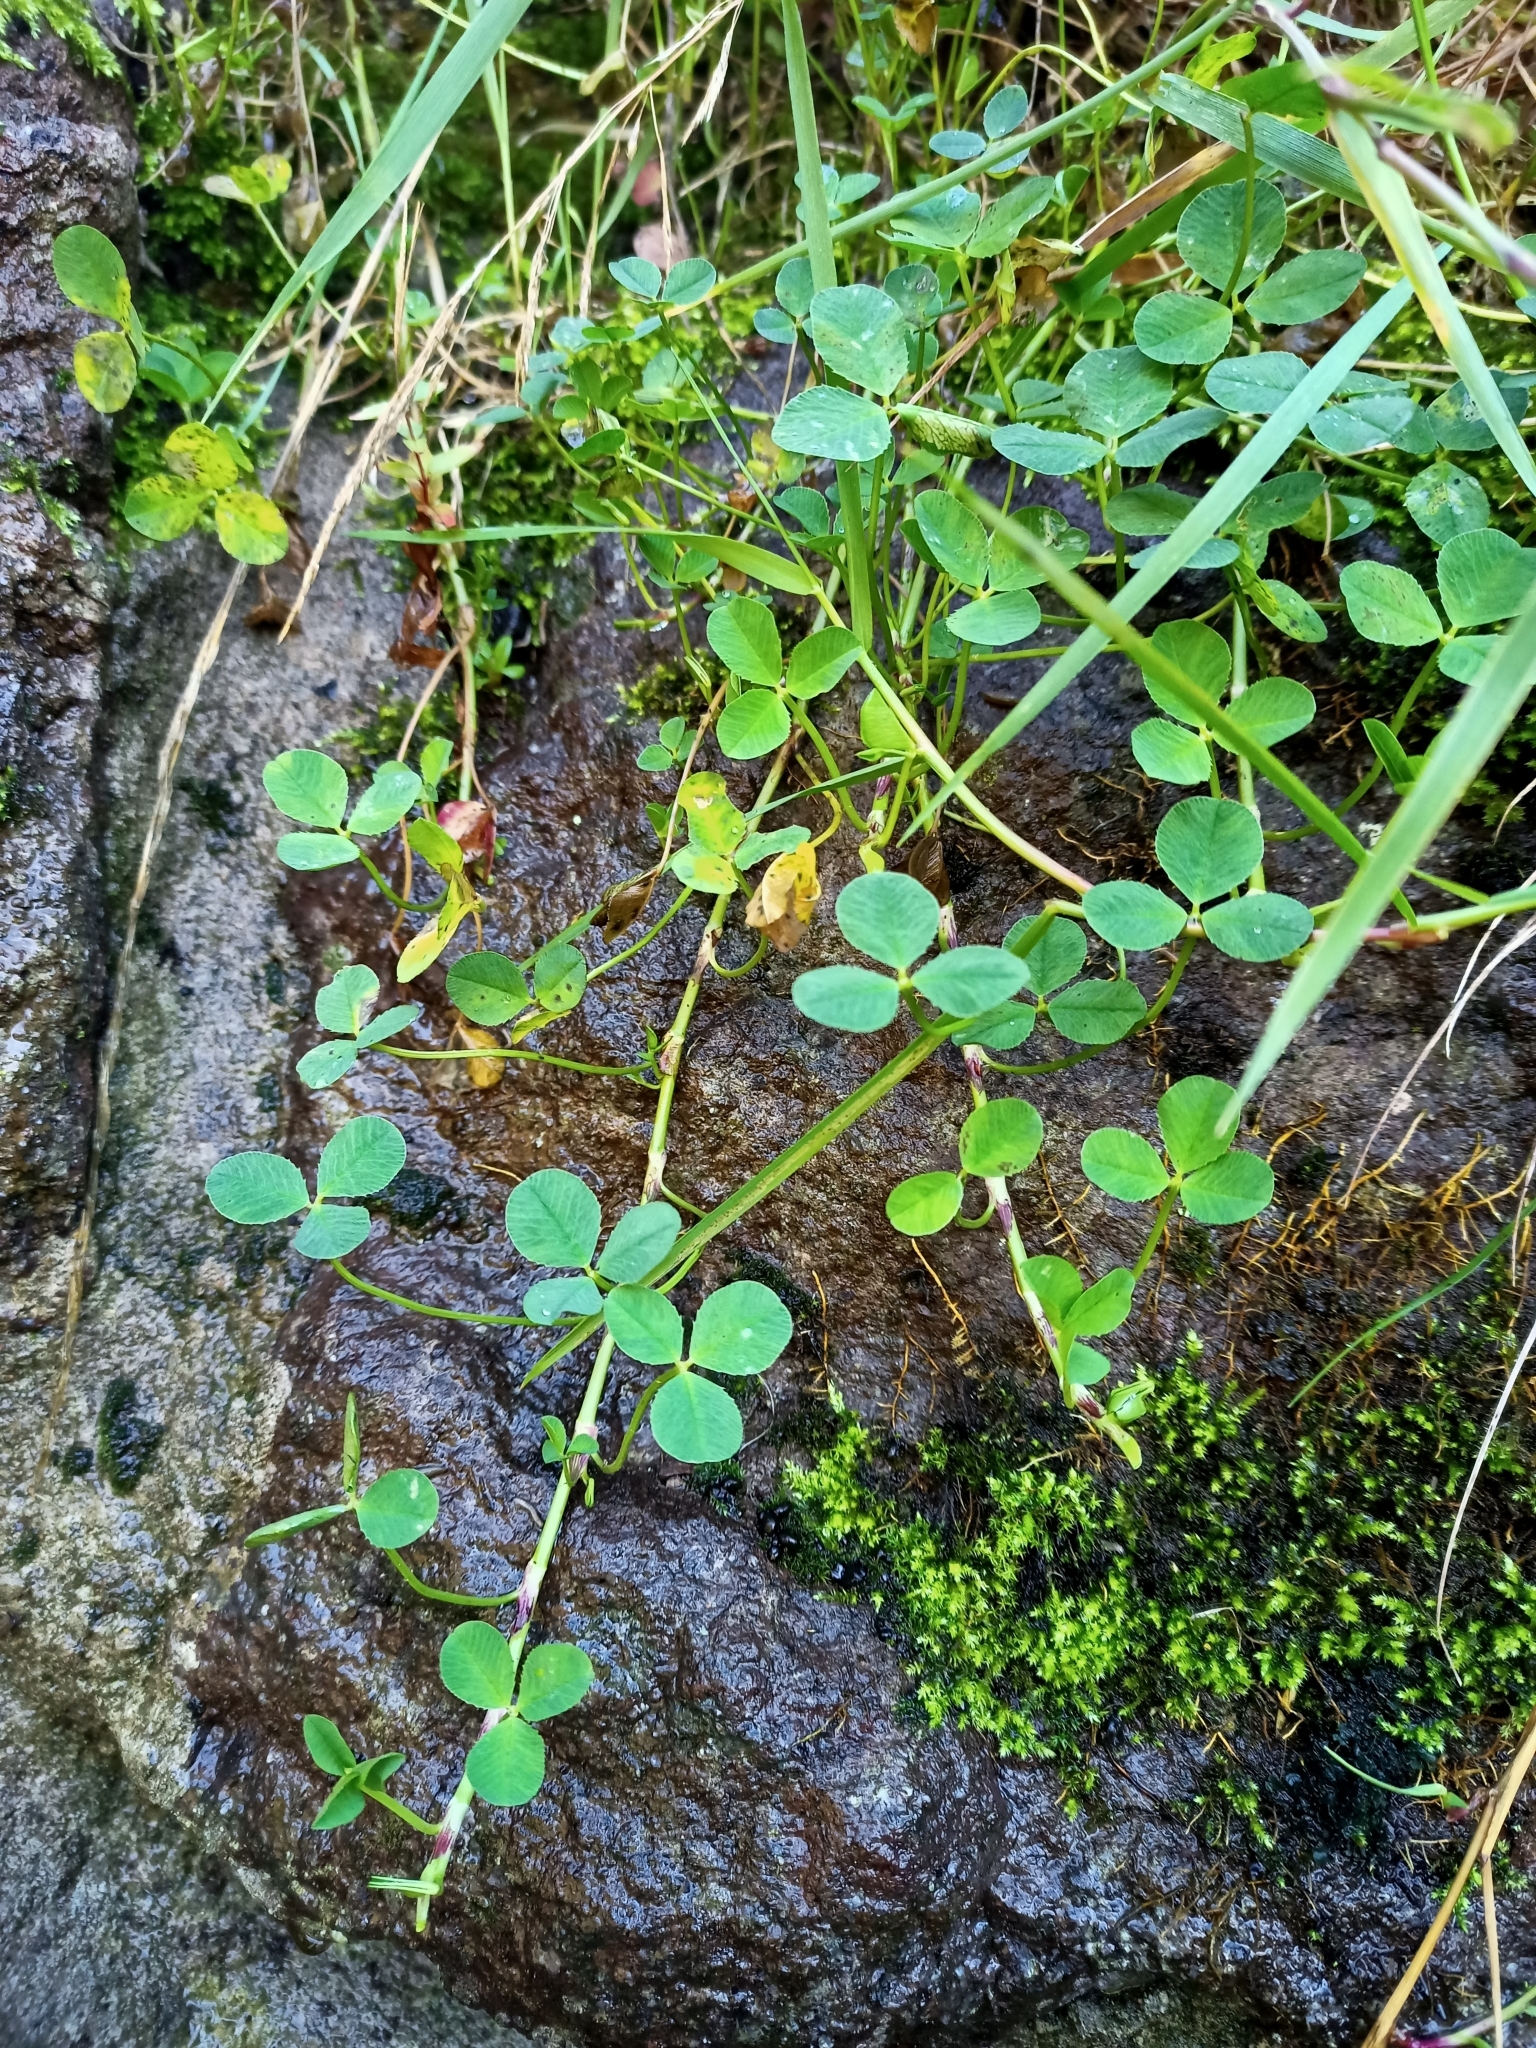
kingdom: Plantae
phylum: Tracheophyta
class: Magnoliopsida
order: Fabales
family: Fabaceae
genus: Trifolium
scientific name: Trifolium repens
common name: White clover
